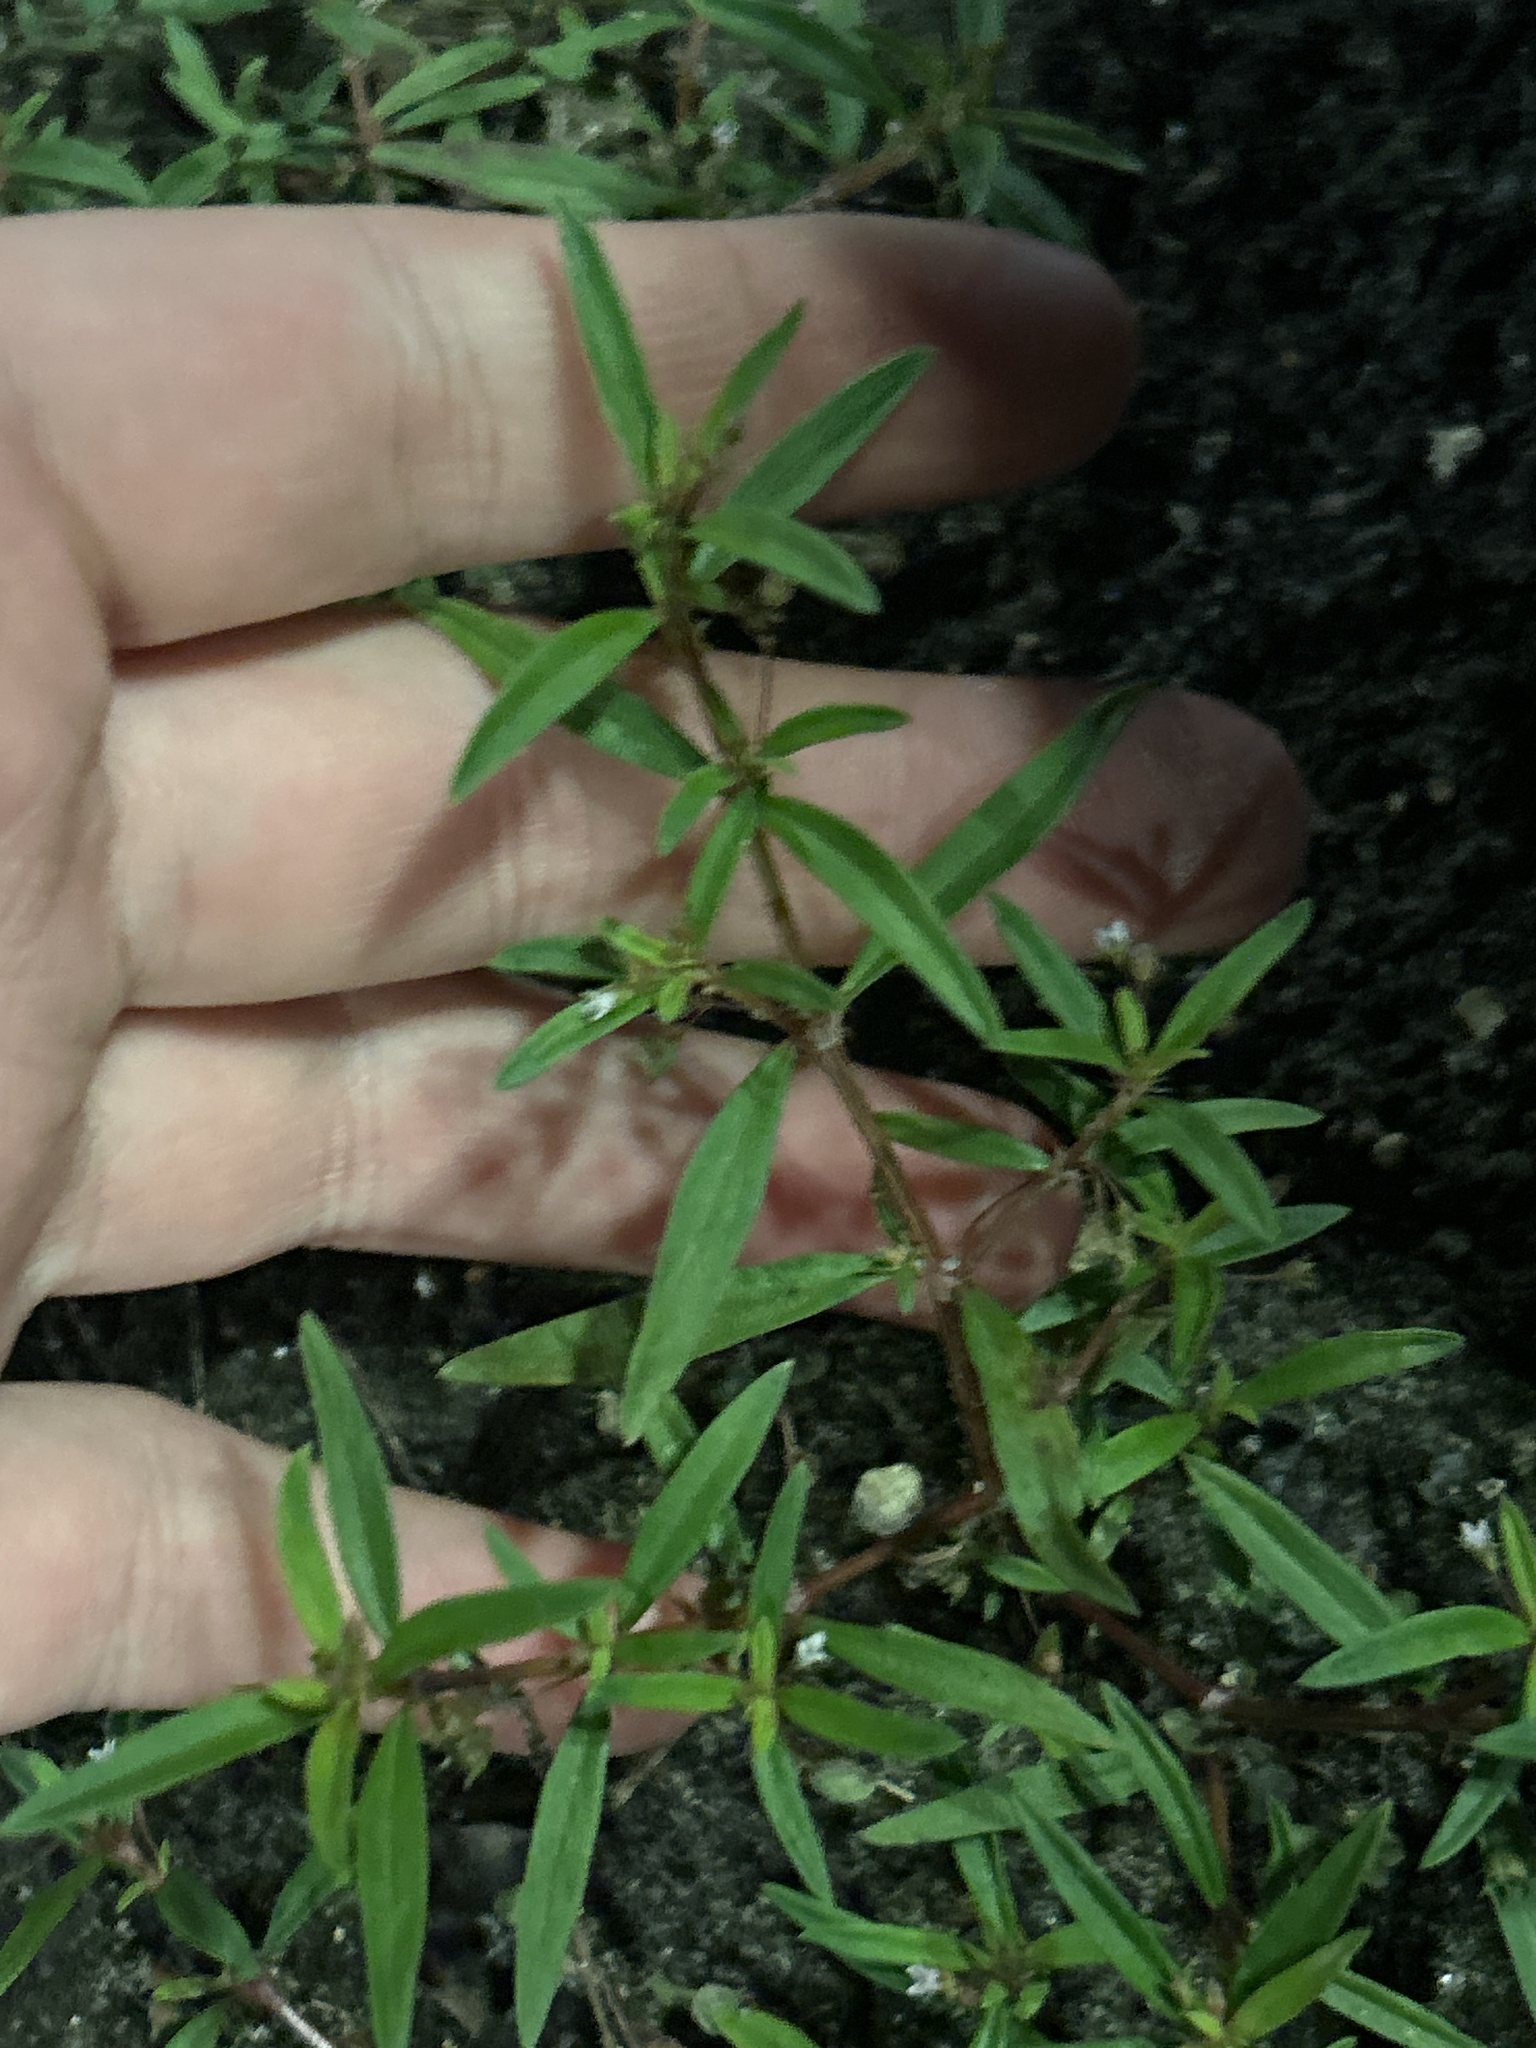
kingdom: Plantae
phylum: Tracheophyta
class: Magnoliopsida
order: Gentianales
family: Rubiaceae
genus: Oldenlandia
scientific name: Oldenlandia corymbosa
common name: Flat-top mille graines
